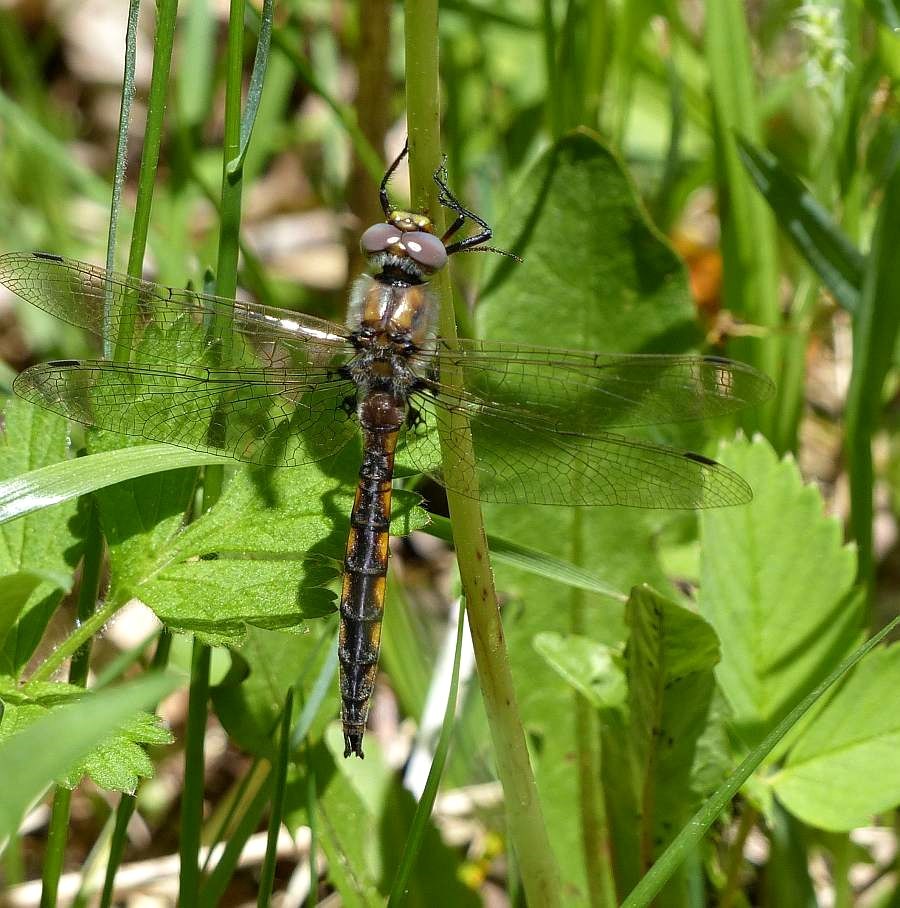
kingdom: Animalia
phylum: Arthropoda
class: Insecta
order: Odonata
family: Corduliidae
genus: Epitheca
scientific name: Epitheca canis
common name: Beaverpond baskettail
